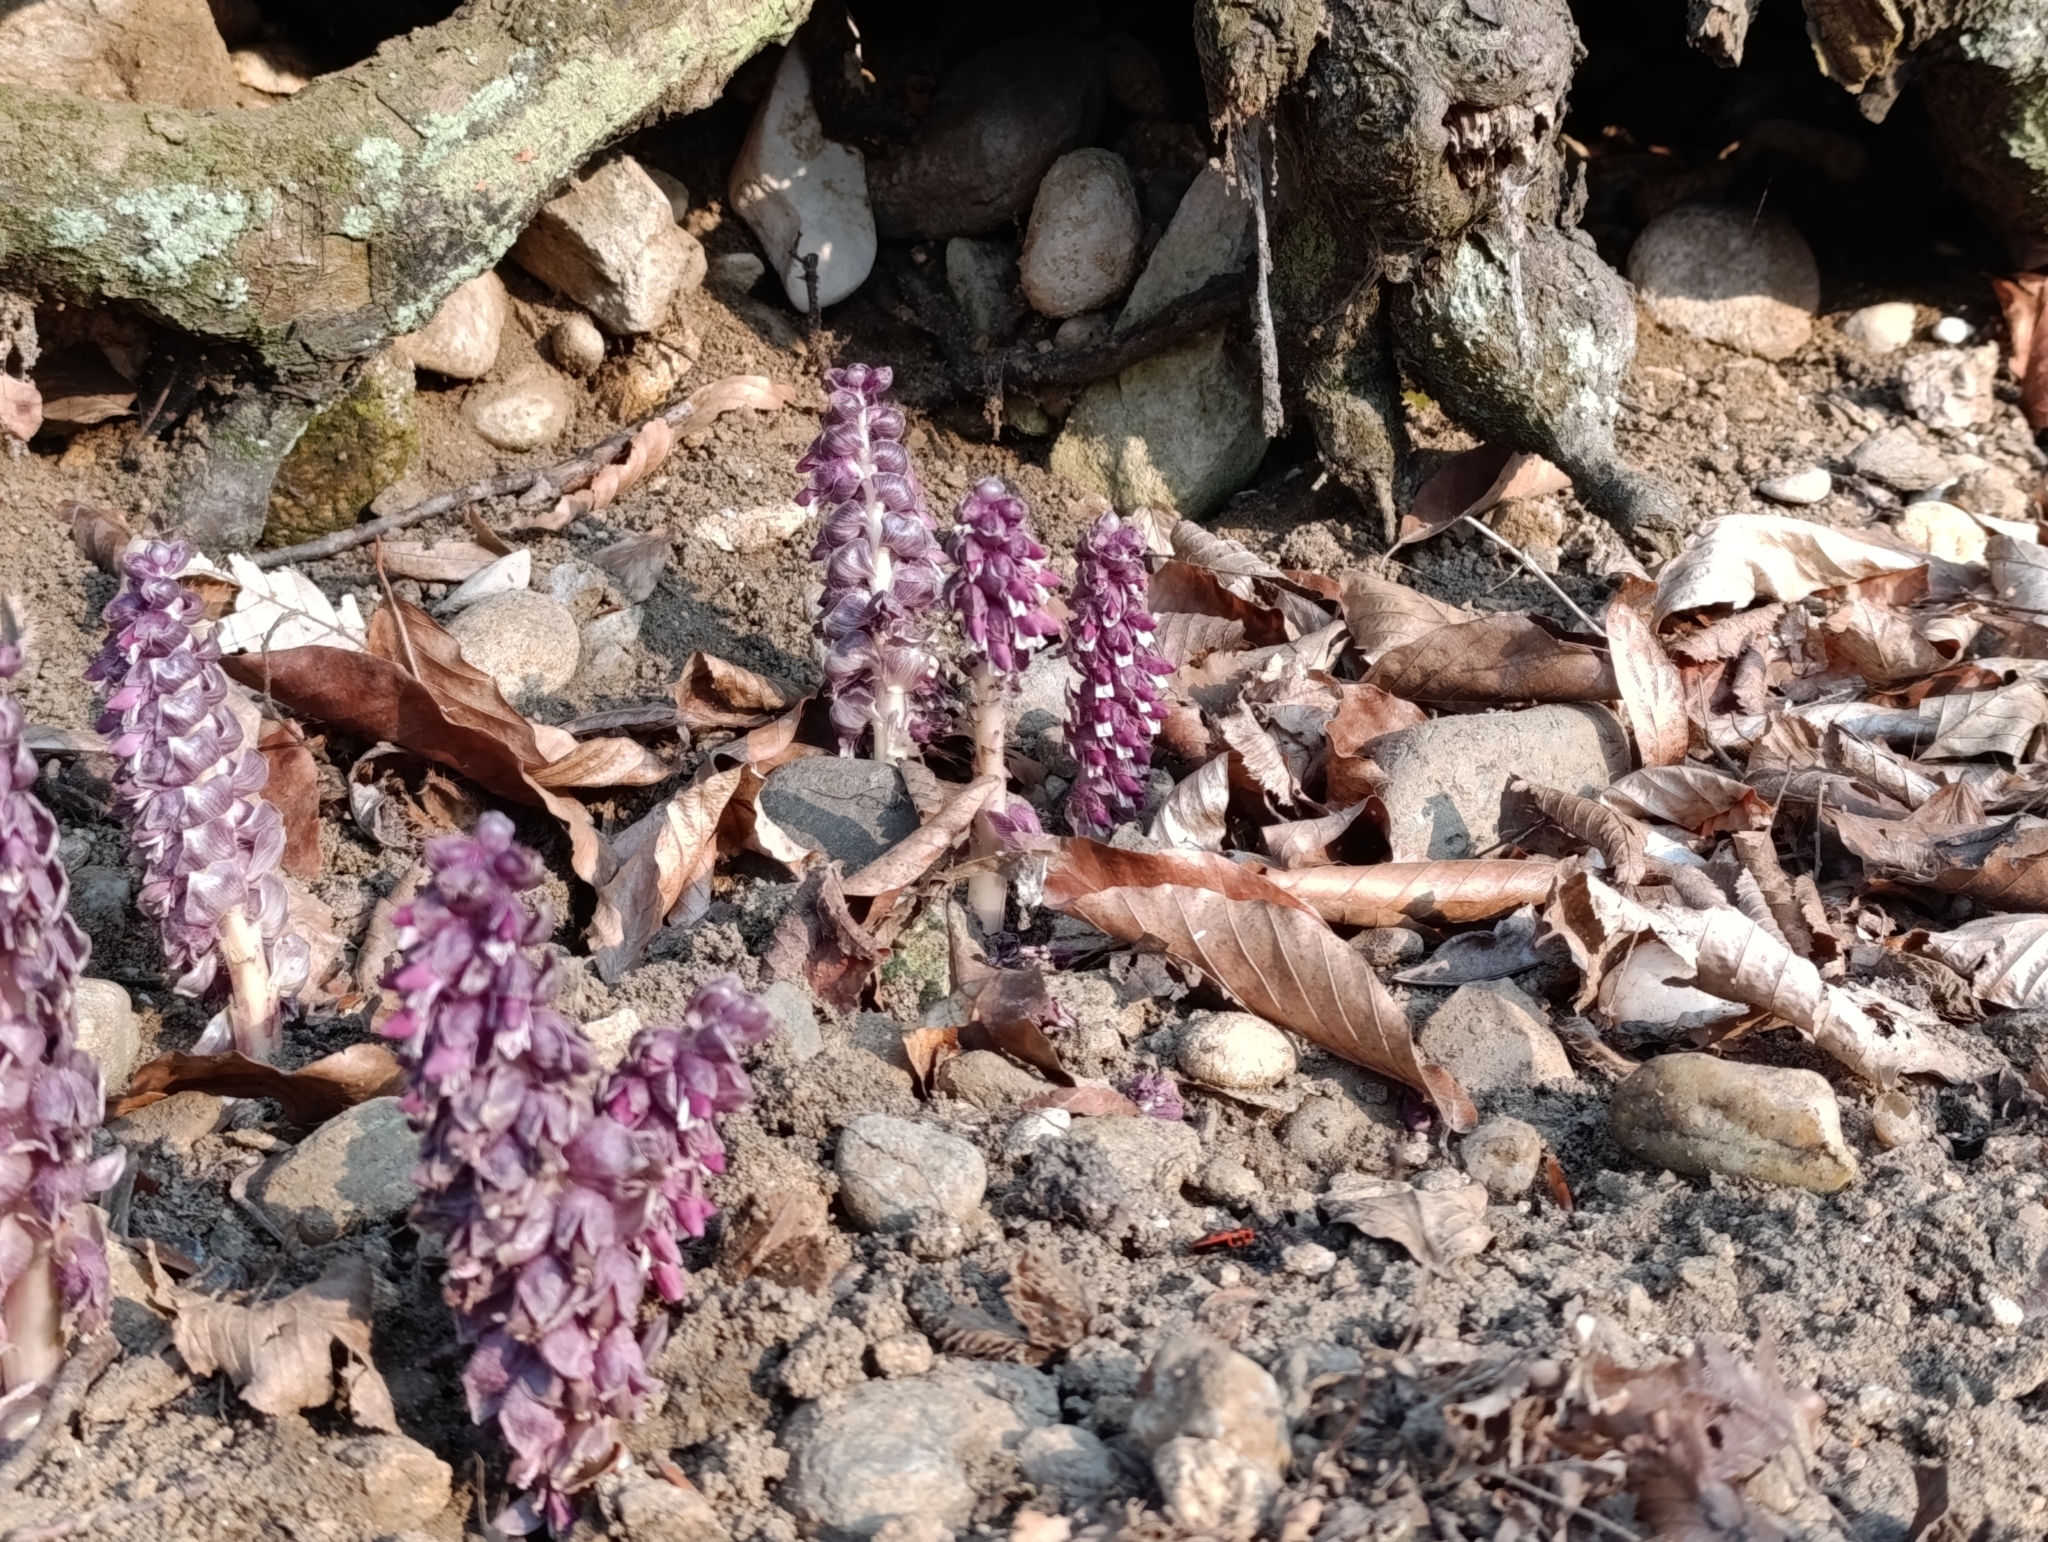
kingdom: Plantae
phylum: Tracheophyta
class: Magnoliopsida
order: Lamiales
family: Orobanchaceae
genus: Lathraea
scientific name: Lathraea squamaria
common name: Toothwort
